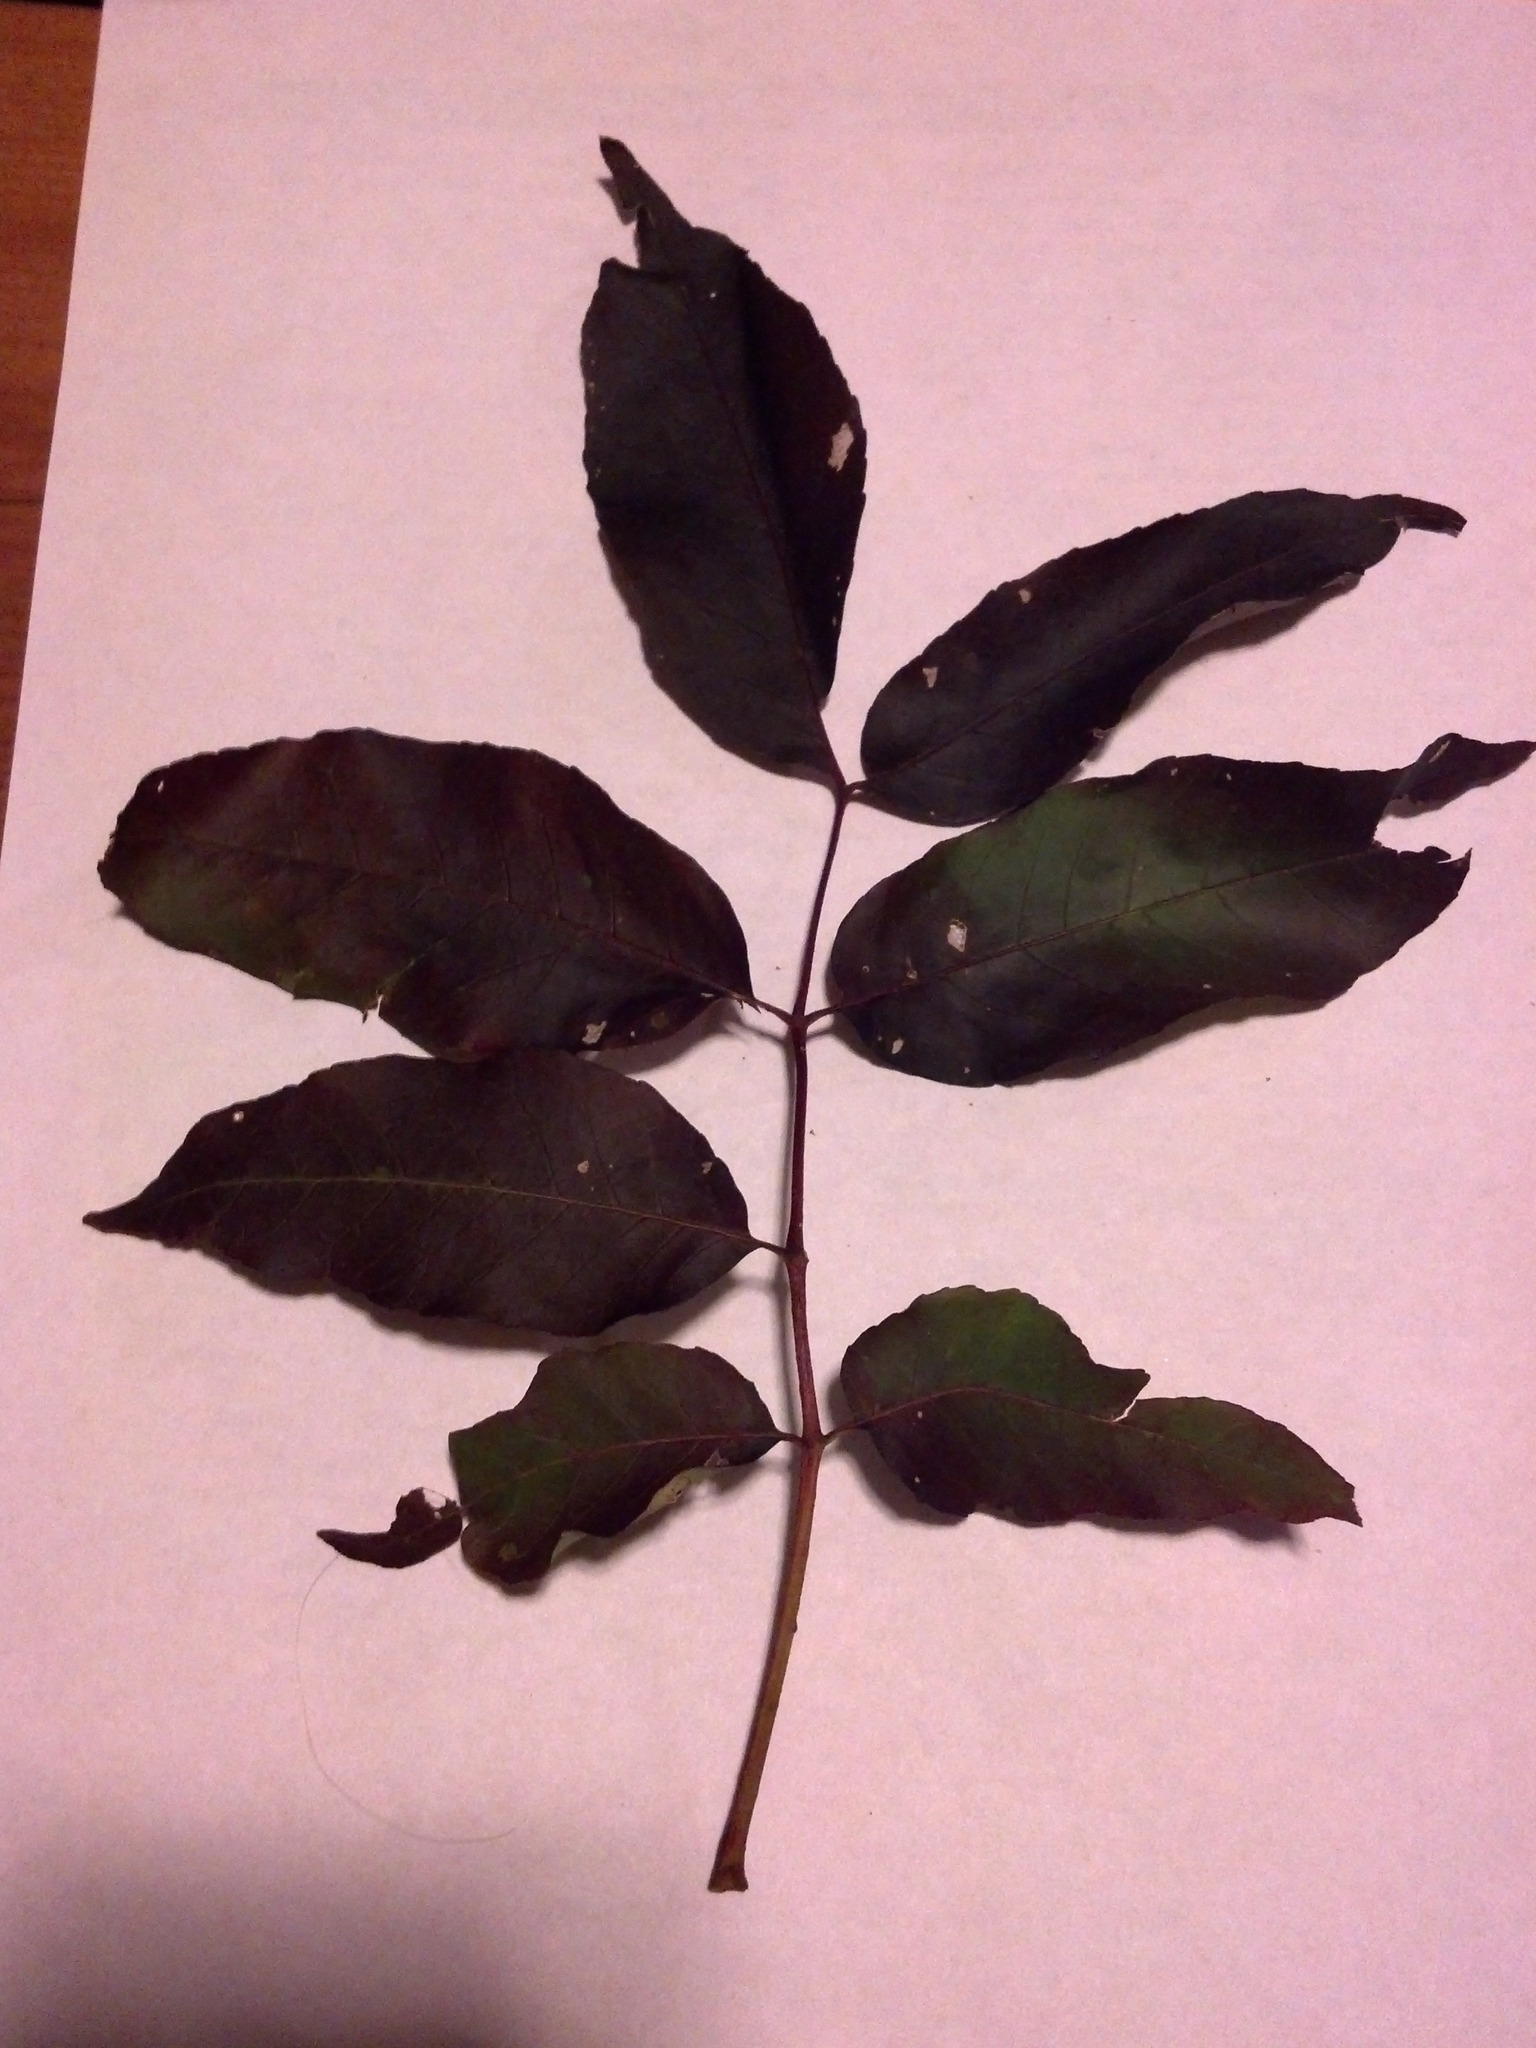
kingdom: Plantae
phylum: Tracheophyta
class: Magnoliopsida
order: Lamiales
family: Oleaceae
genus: Fraxinus
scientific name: Fraxinus americana
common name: White ash
